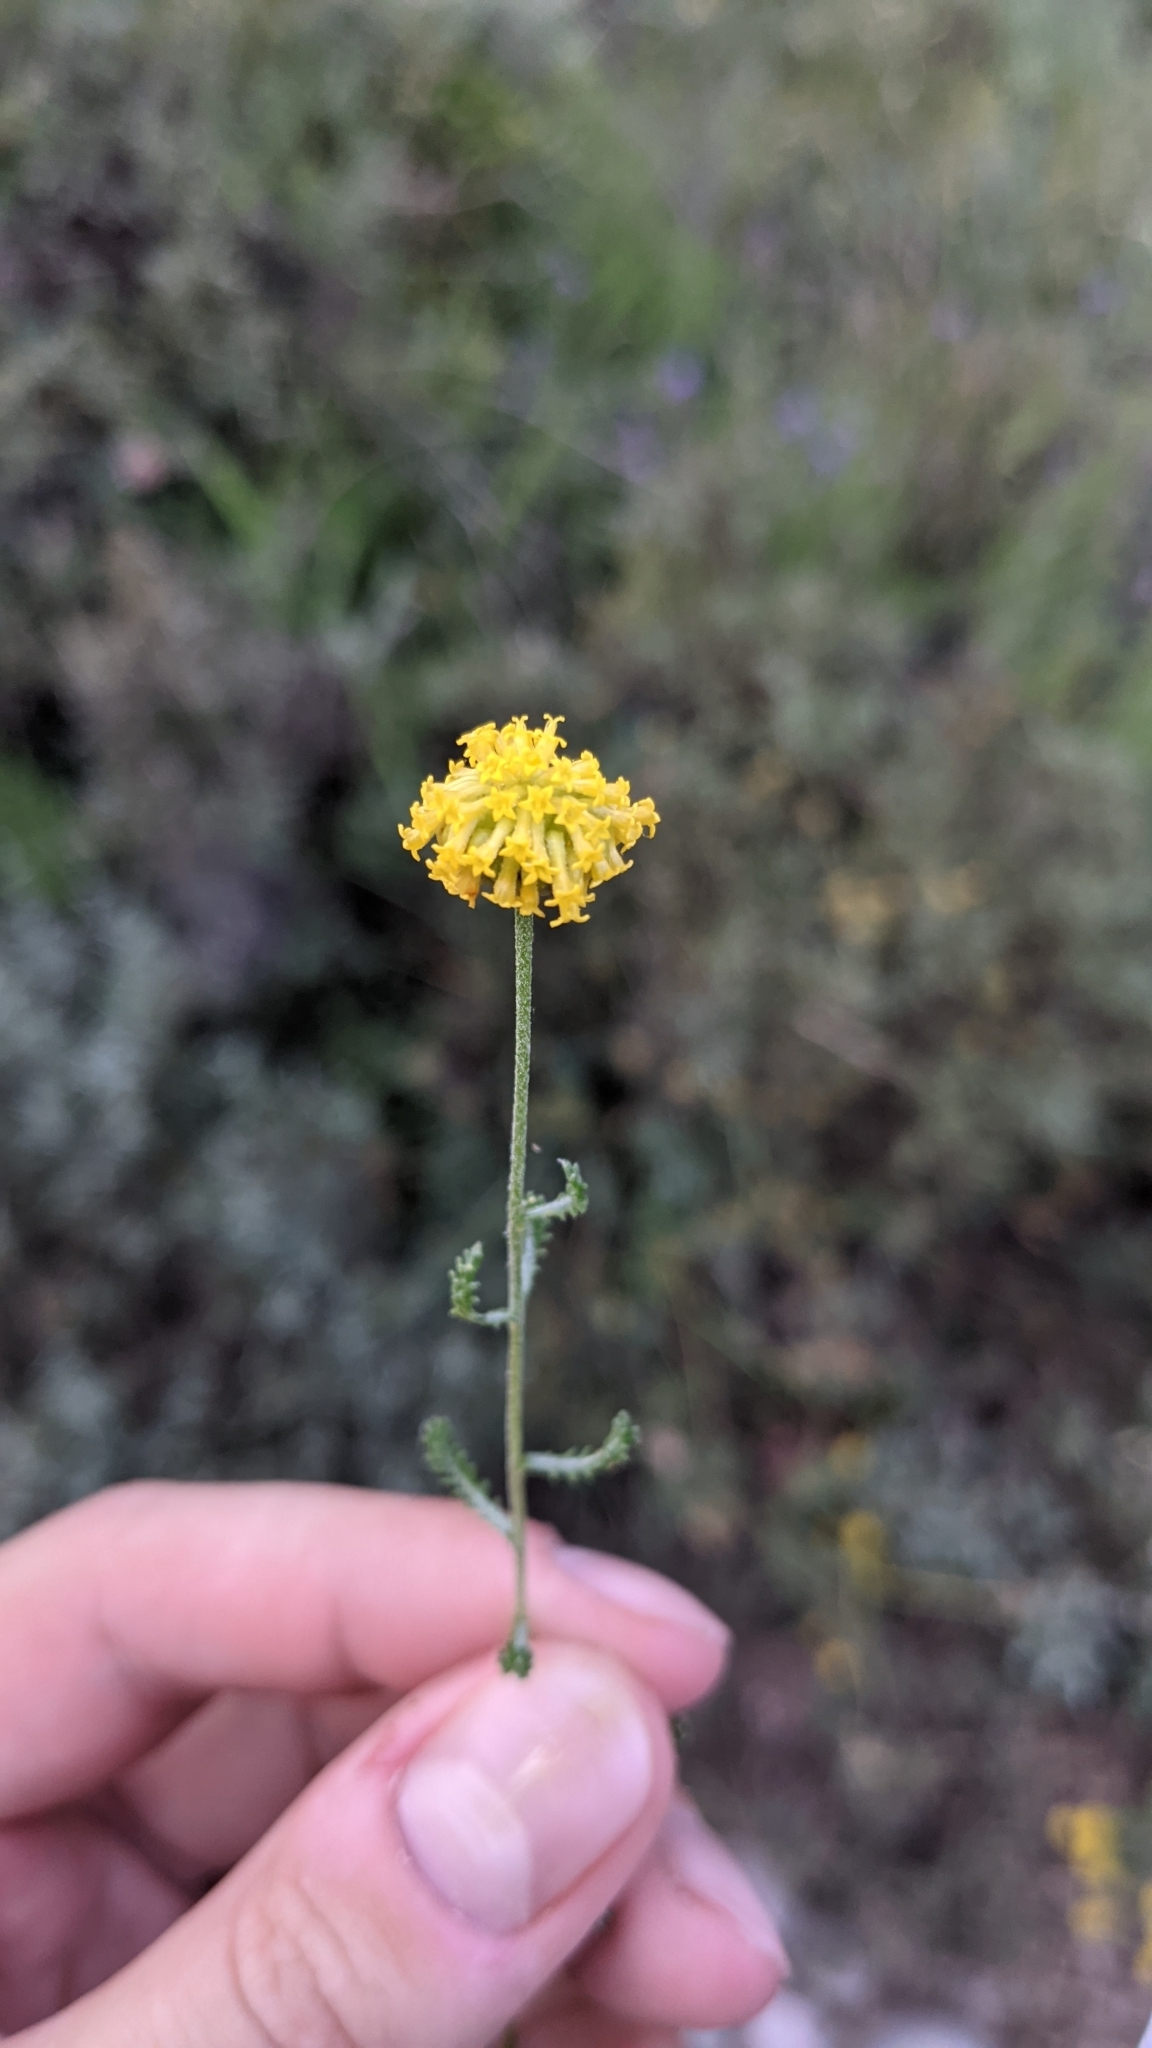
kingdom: Plantae
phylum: Tracheophyta
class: Magnoliopsida
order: Asterales
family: Asteraceae
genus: Santolina
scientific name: Santolina chamaecyparissus
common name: Lavender-cotton
